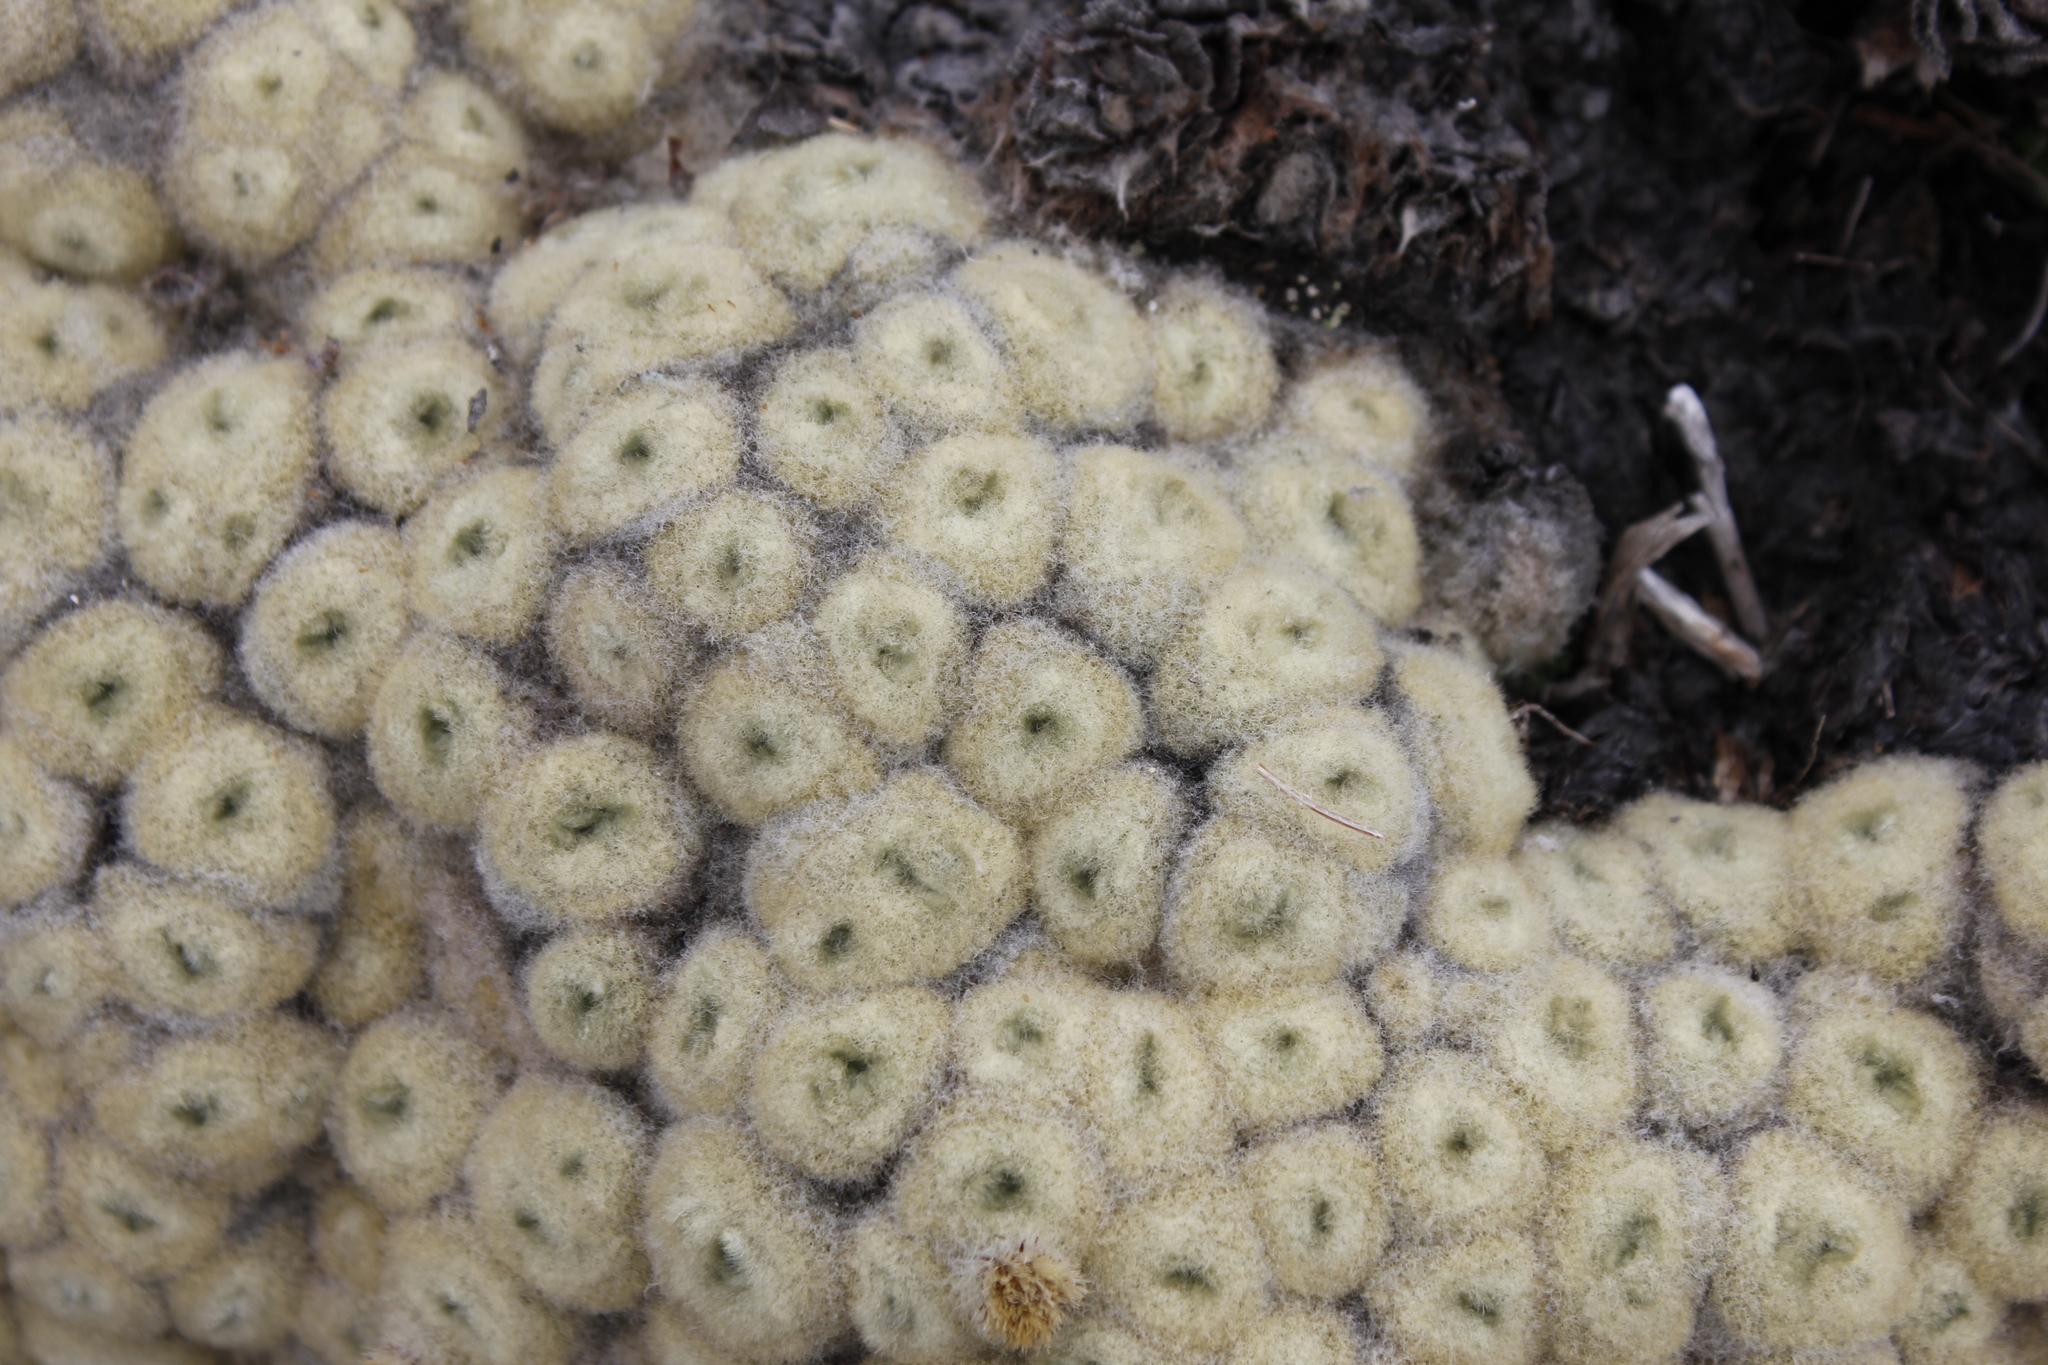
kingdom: Plantae
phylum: Tracheophyta
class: Magnoliopsida
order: Asterales
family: Asteraceae
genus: Haastia
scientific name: Haastia pulvinaris
